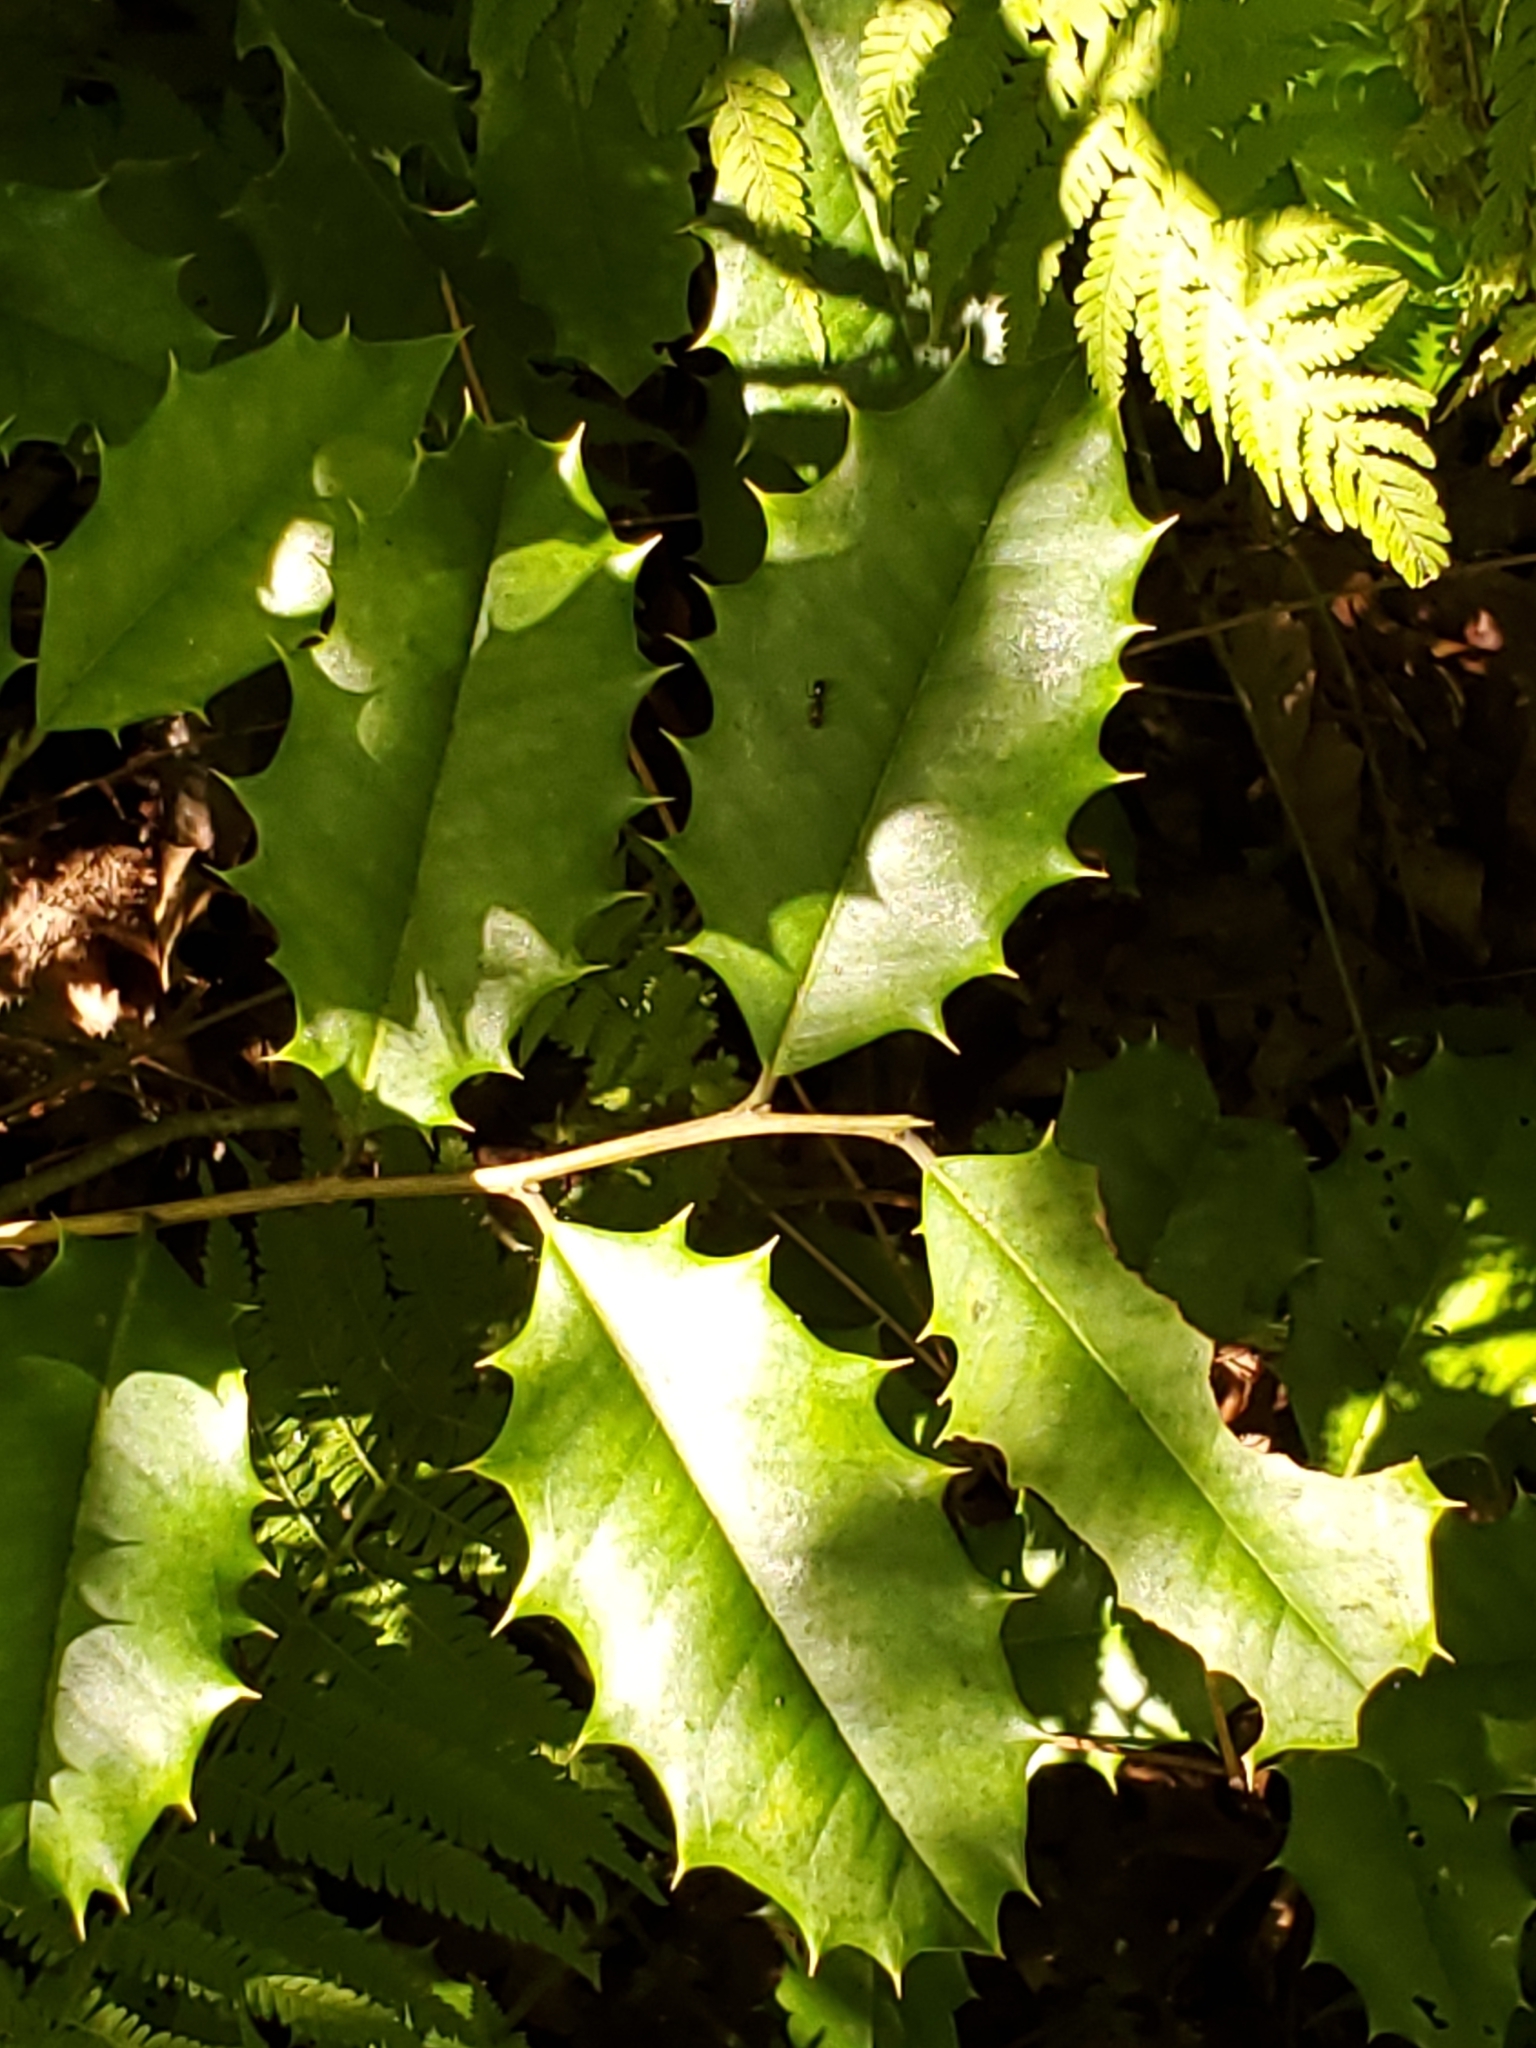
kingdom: Plantae
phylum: Tracheophyta
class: Magnoliopsida
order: Aquifoliales
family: Aquifoliaceae
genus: Ilex
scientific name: Ilex opaca
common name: American holly
